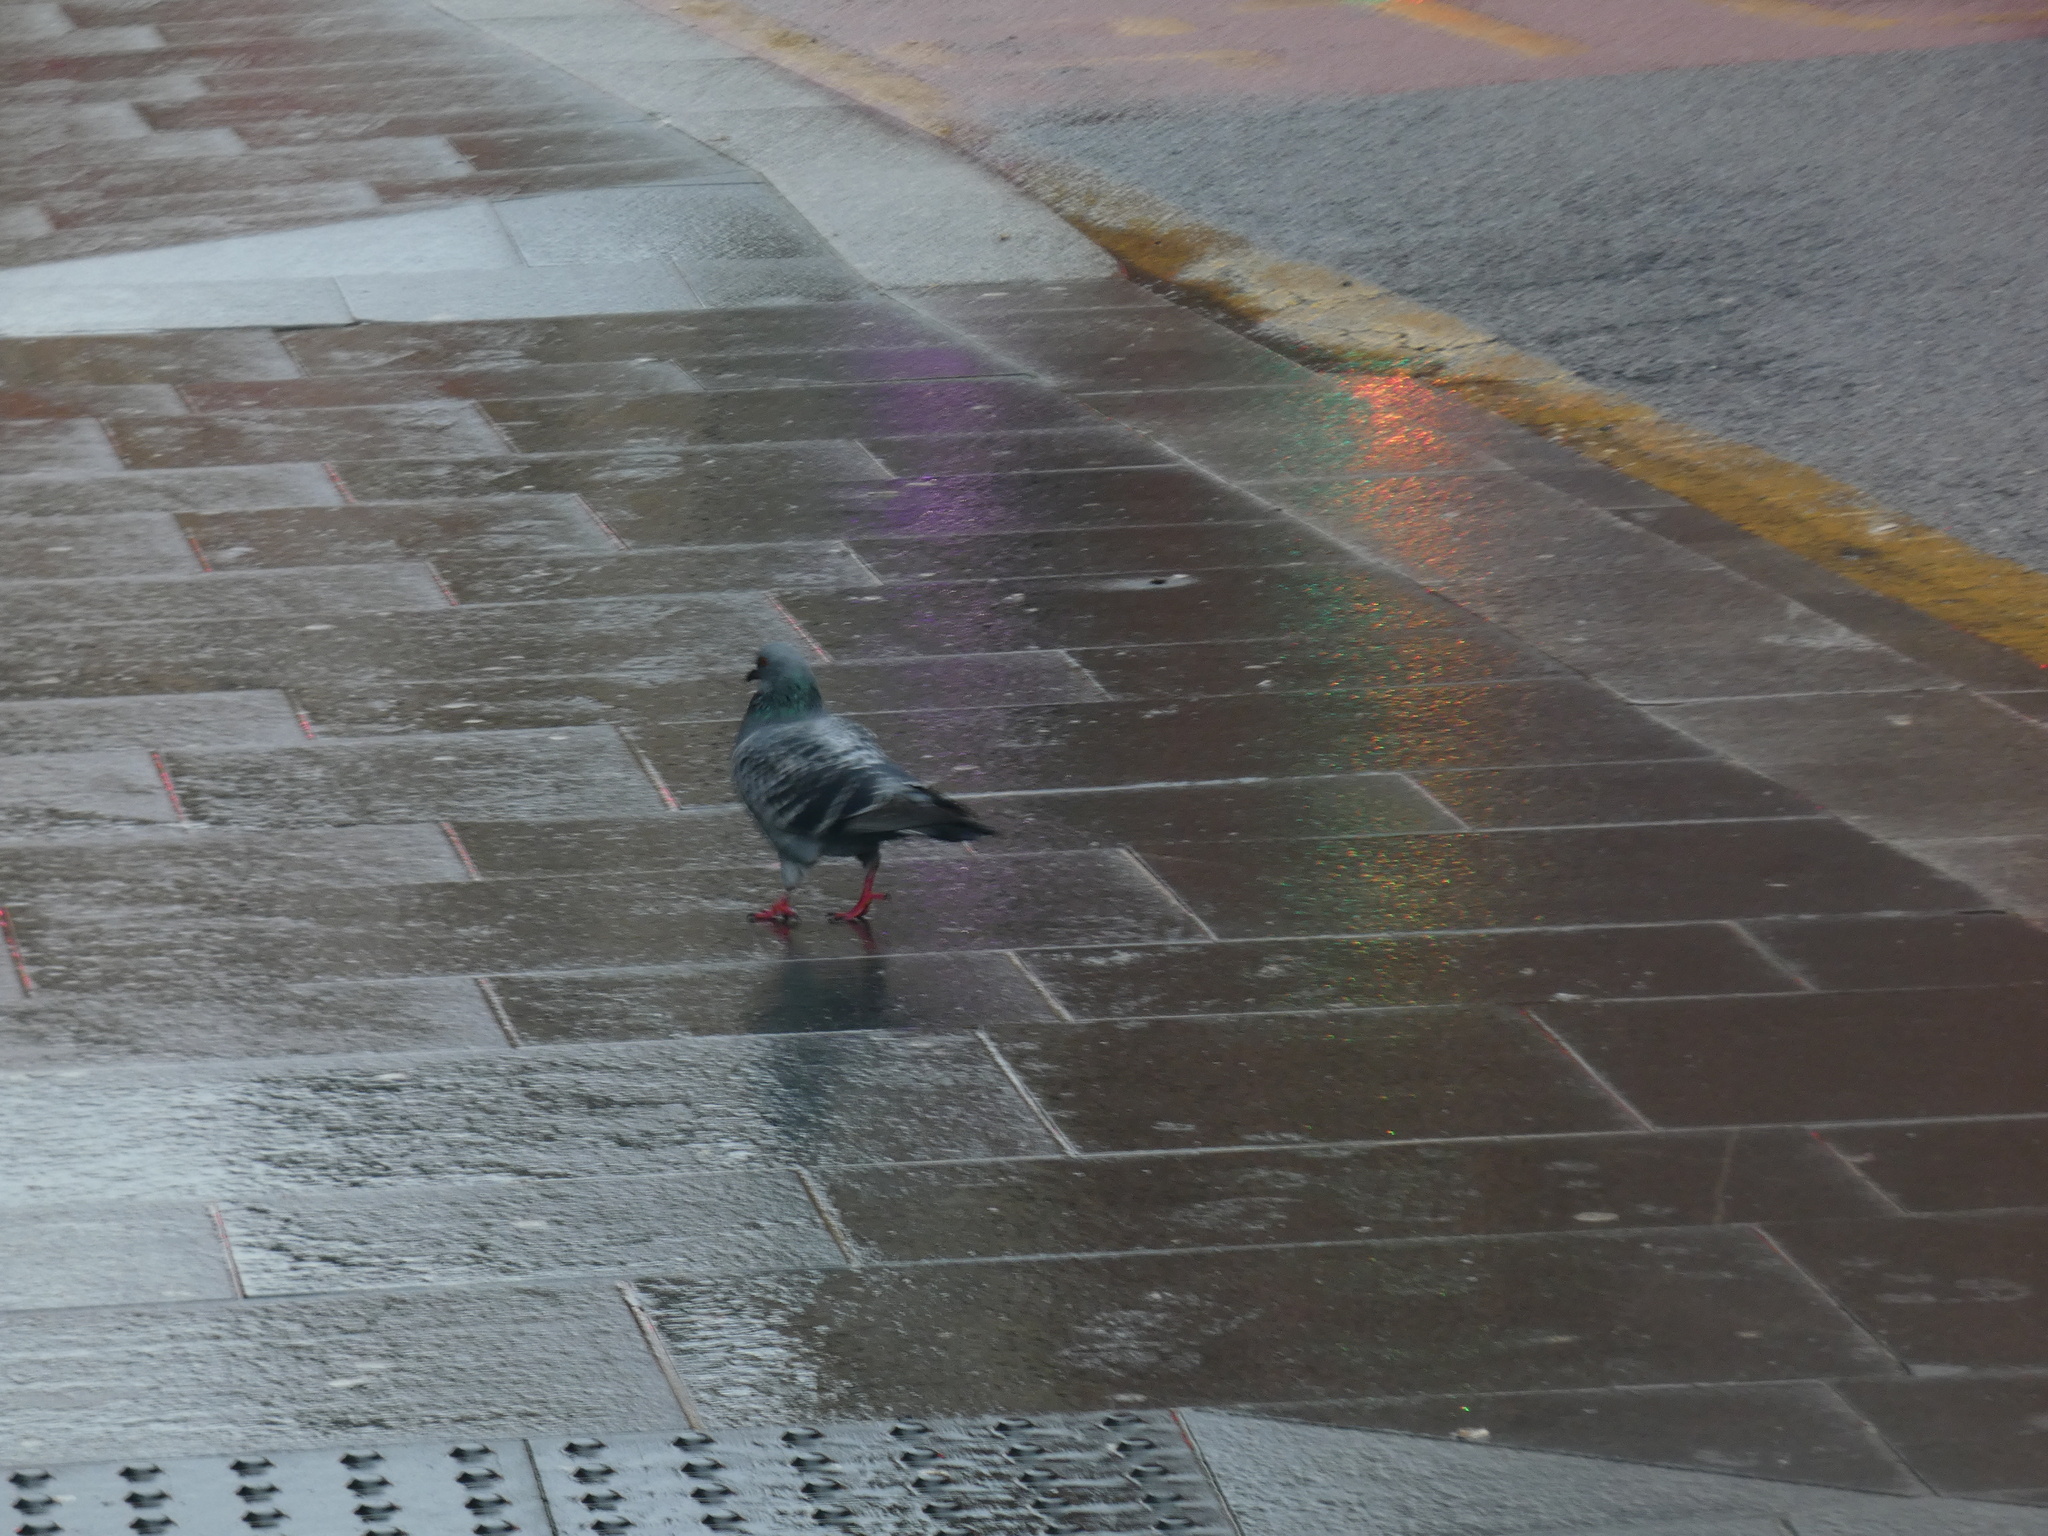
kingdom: Animalia
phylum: Chordata
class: Aves
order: Columbiformes
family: Columbidae
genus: Columba
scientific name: Columba livia
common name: Rock pigeon
